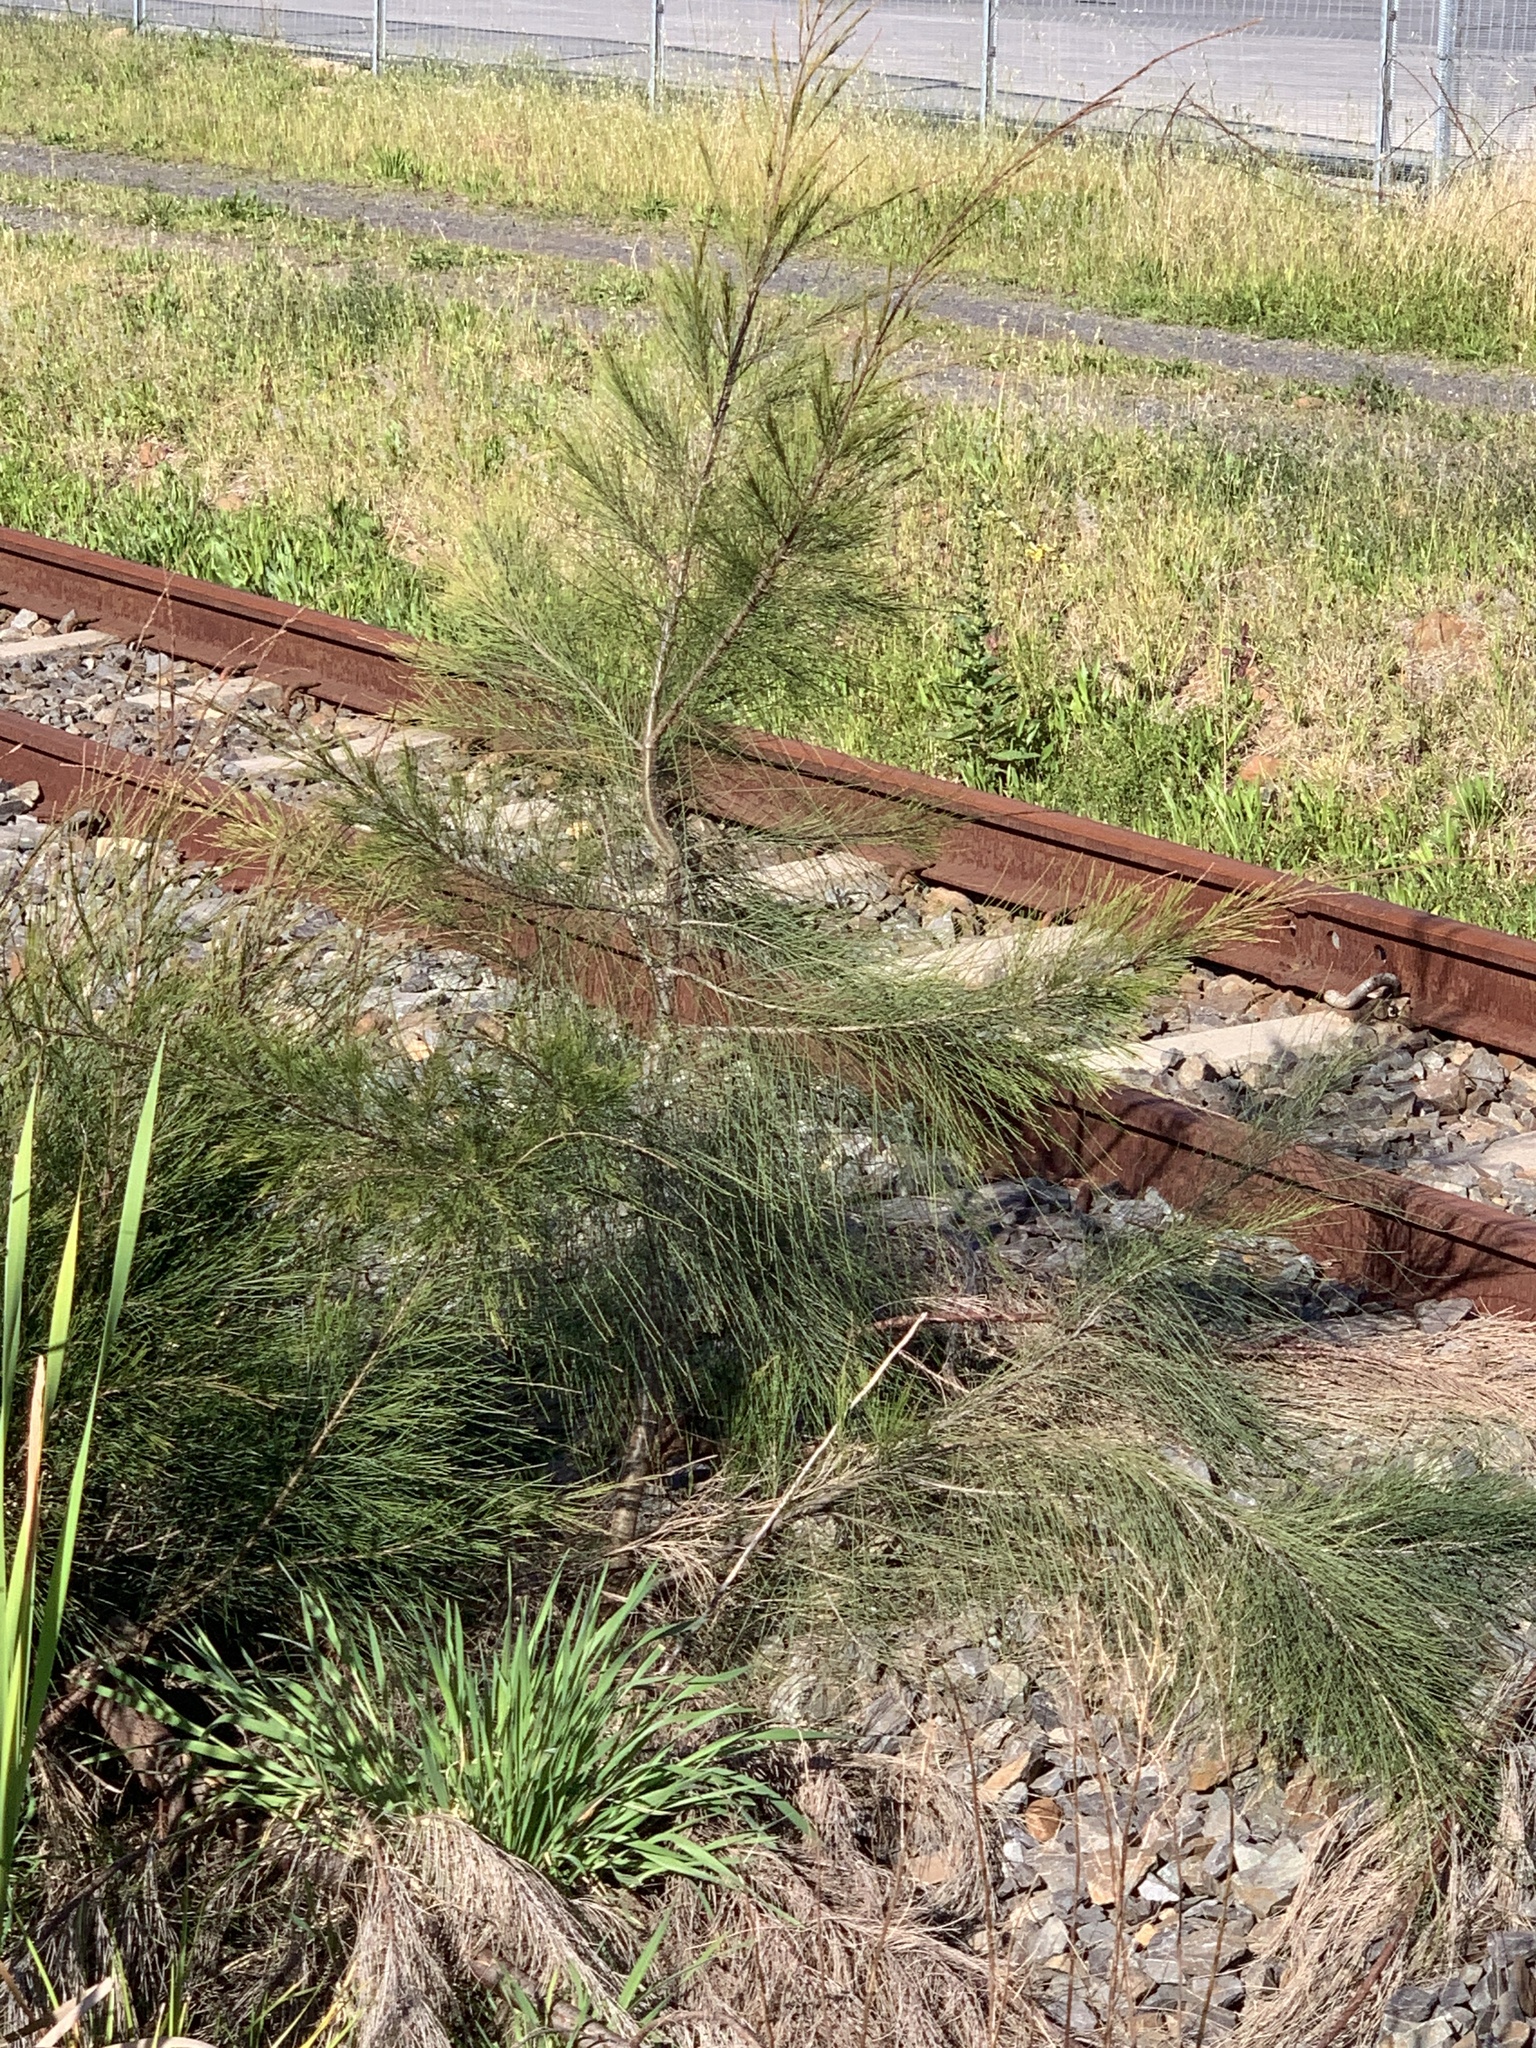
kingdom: Plantae
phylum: Tracheophyta
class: Magnoliopsida
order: Fagales
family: Casuarinaceae
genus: Casuarina
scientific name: Casuarina cunninghamiana
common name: River sheoak
